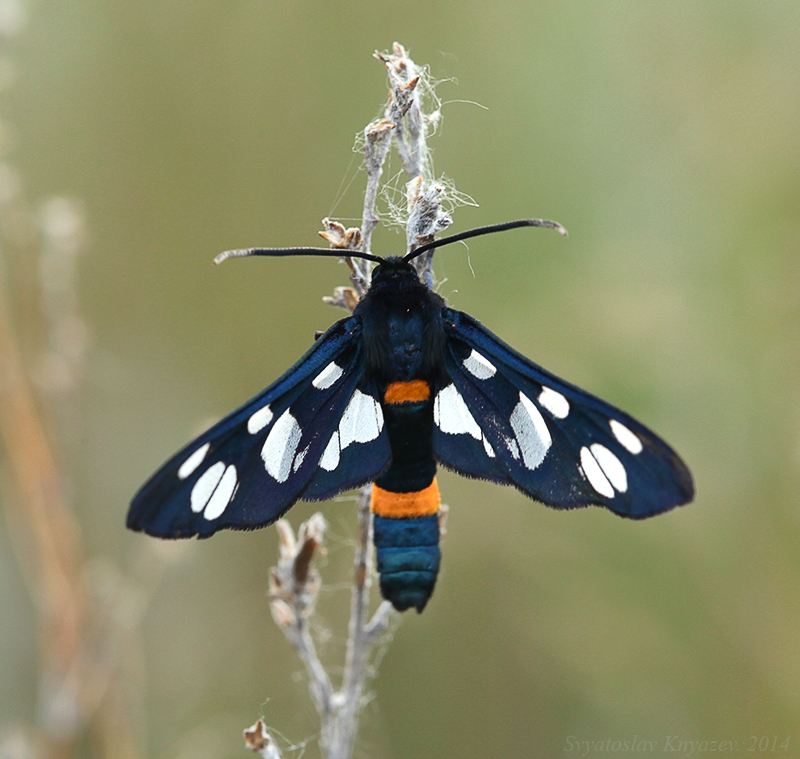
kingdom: Animalia
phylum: Arthropoda
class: Insecta
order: Lepidoptera
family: Erebidae
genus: Amata
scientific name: Amata transcaspica
